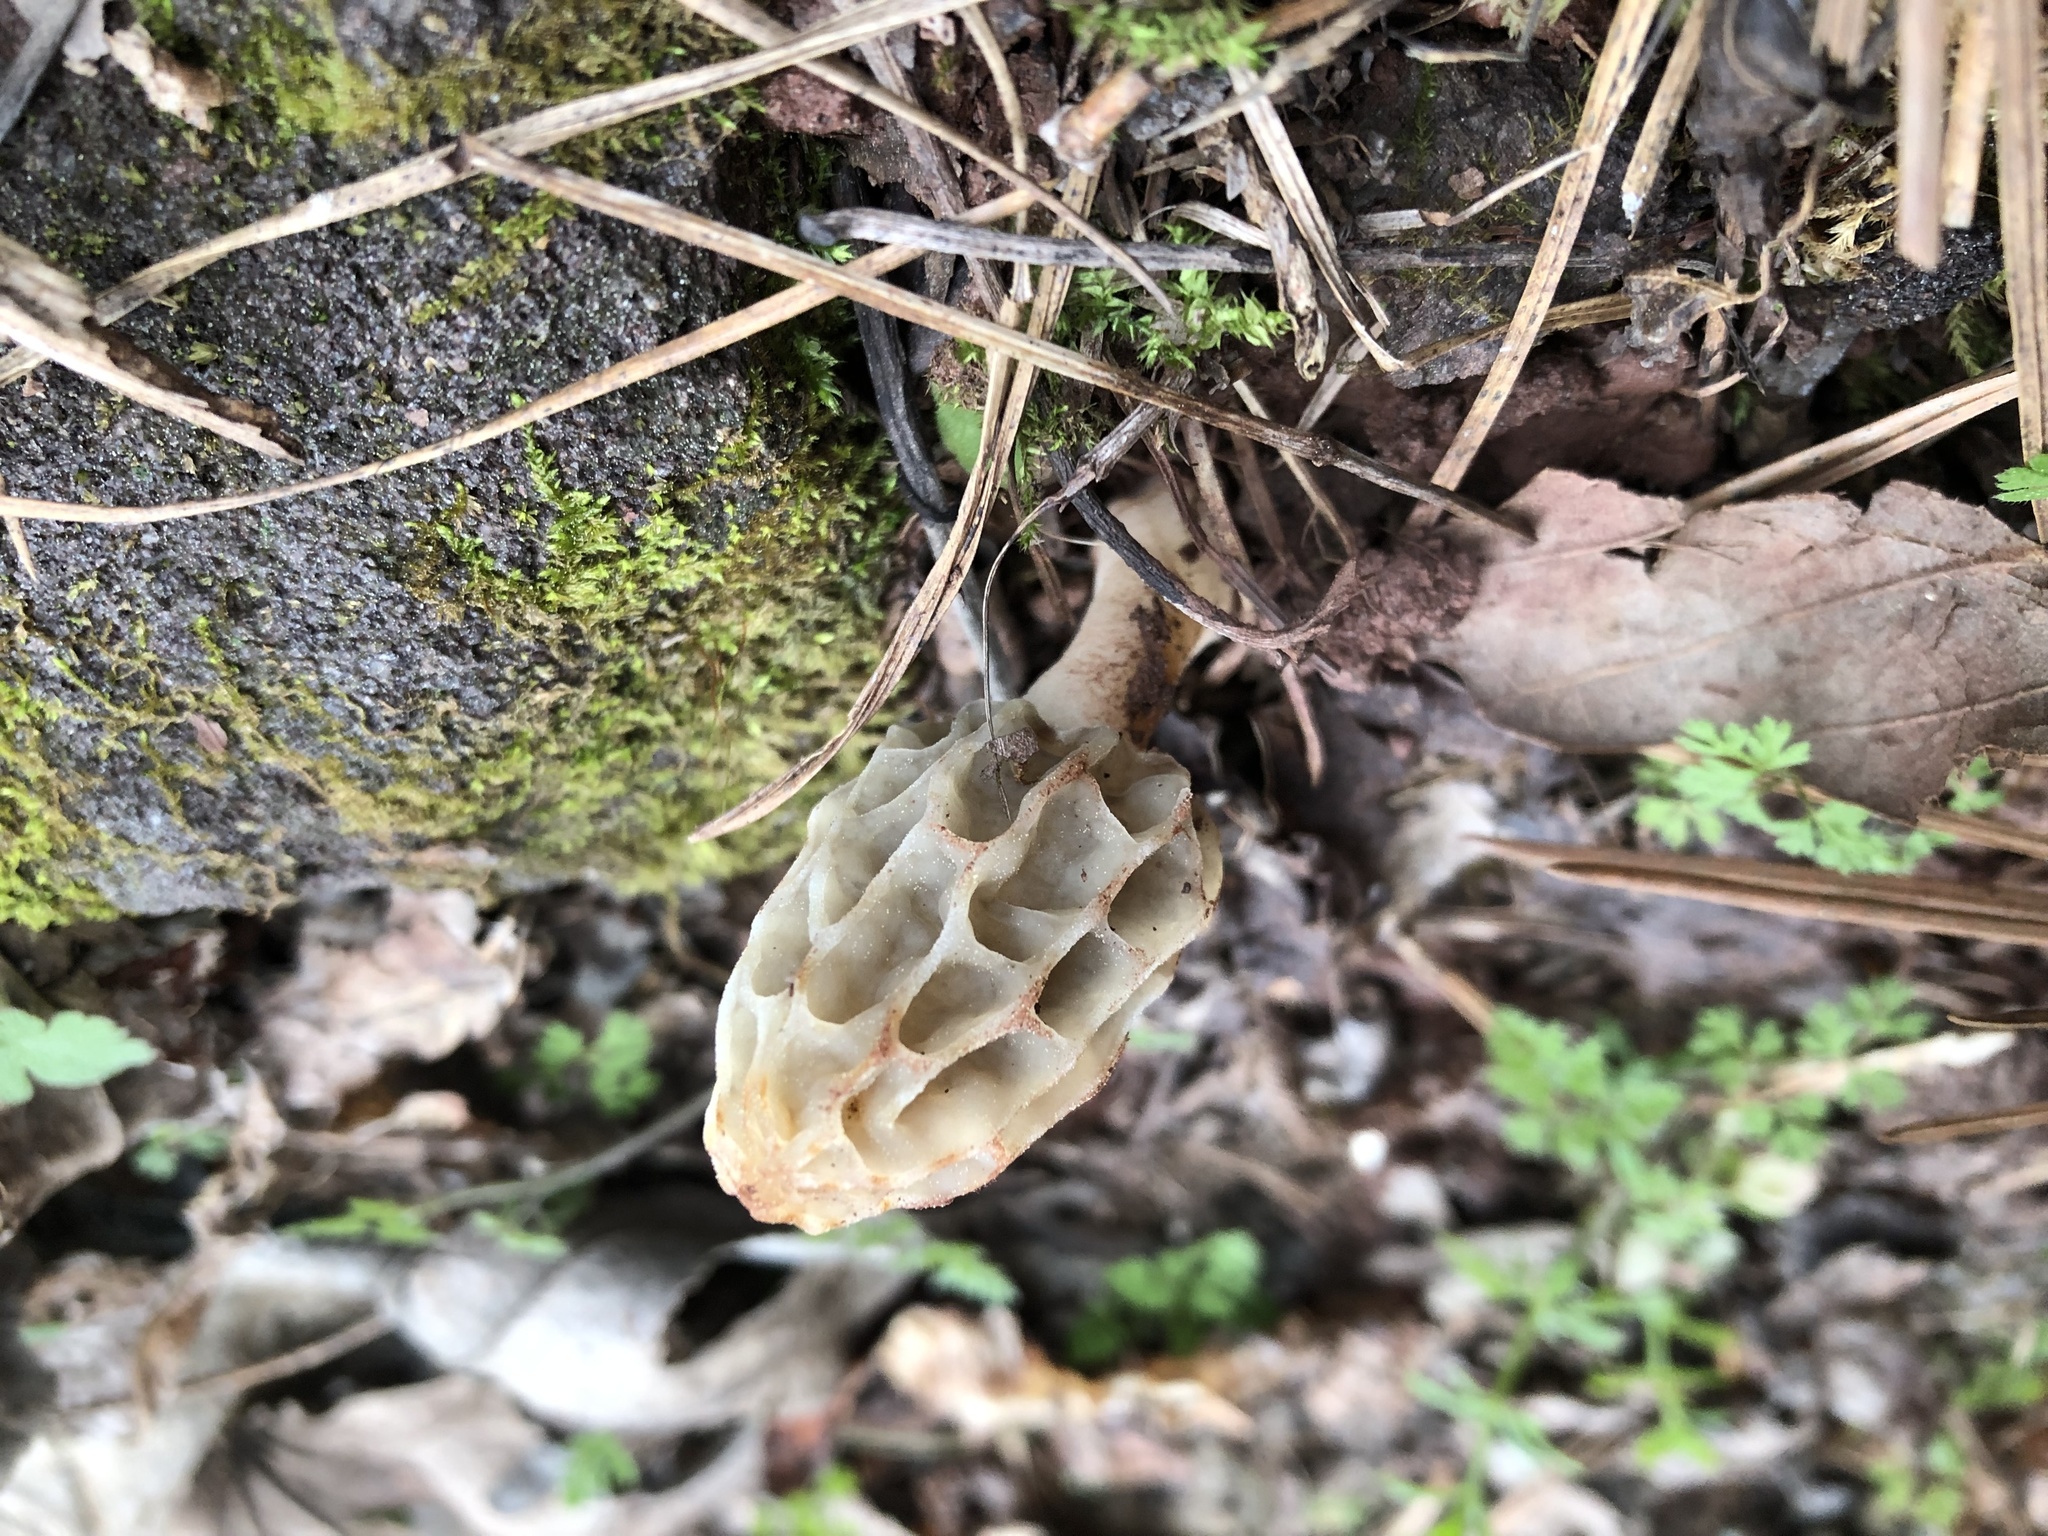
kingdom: Fungi
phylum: Ascomycota
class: Pezizomycetes
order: Pezizales
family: Morchellaceae
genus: Morchella
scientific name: Morchella diminutiva
